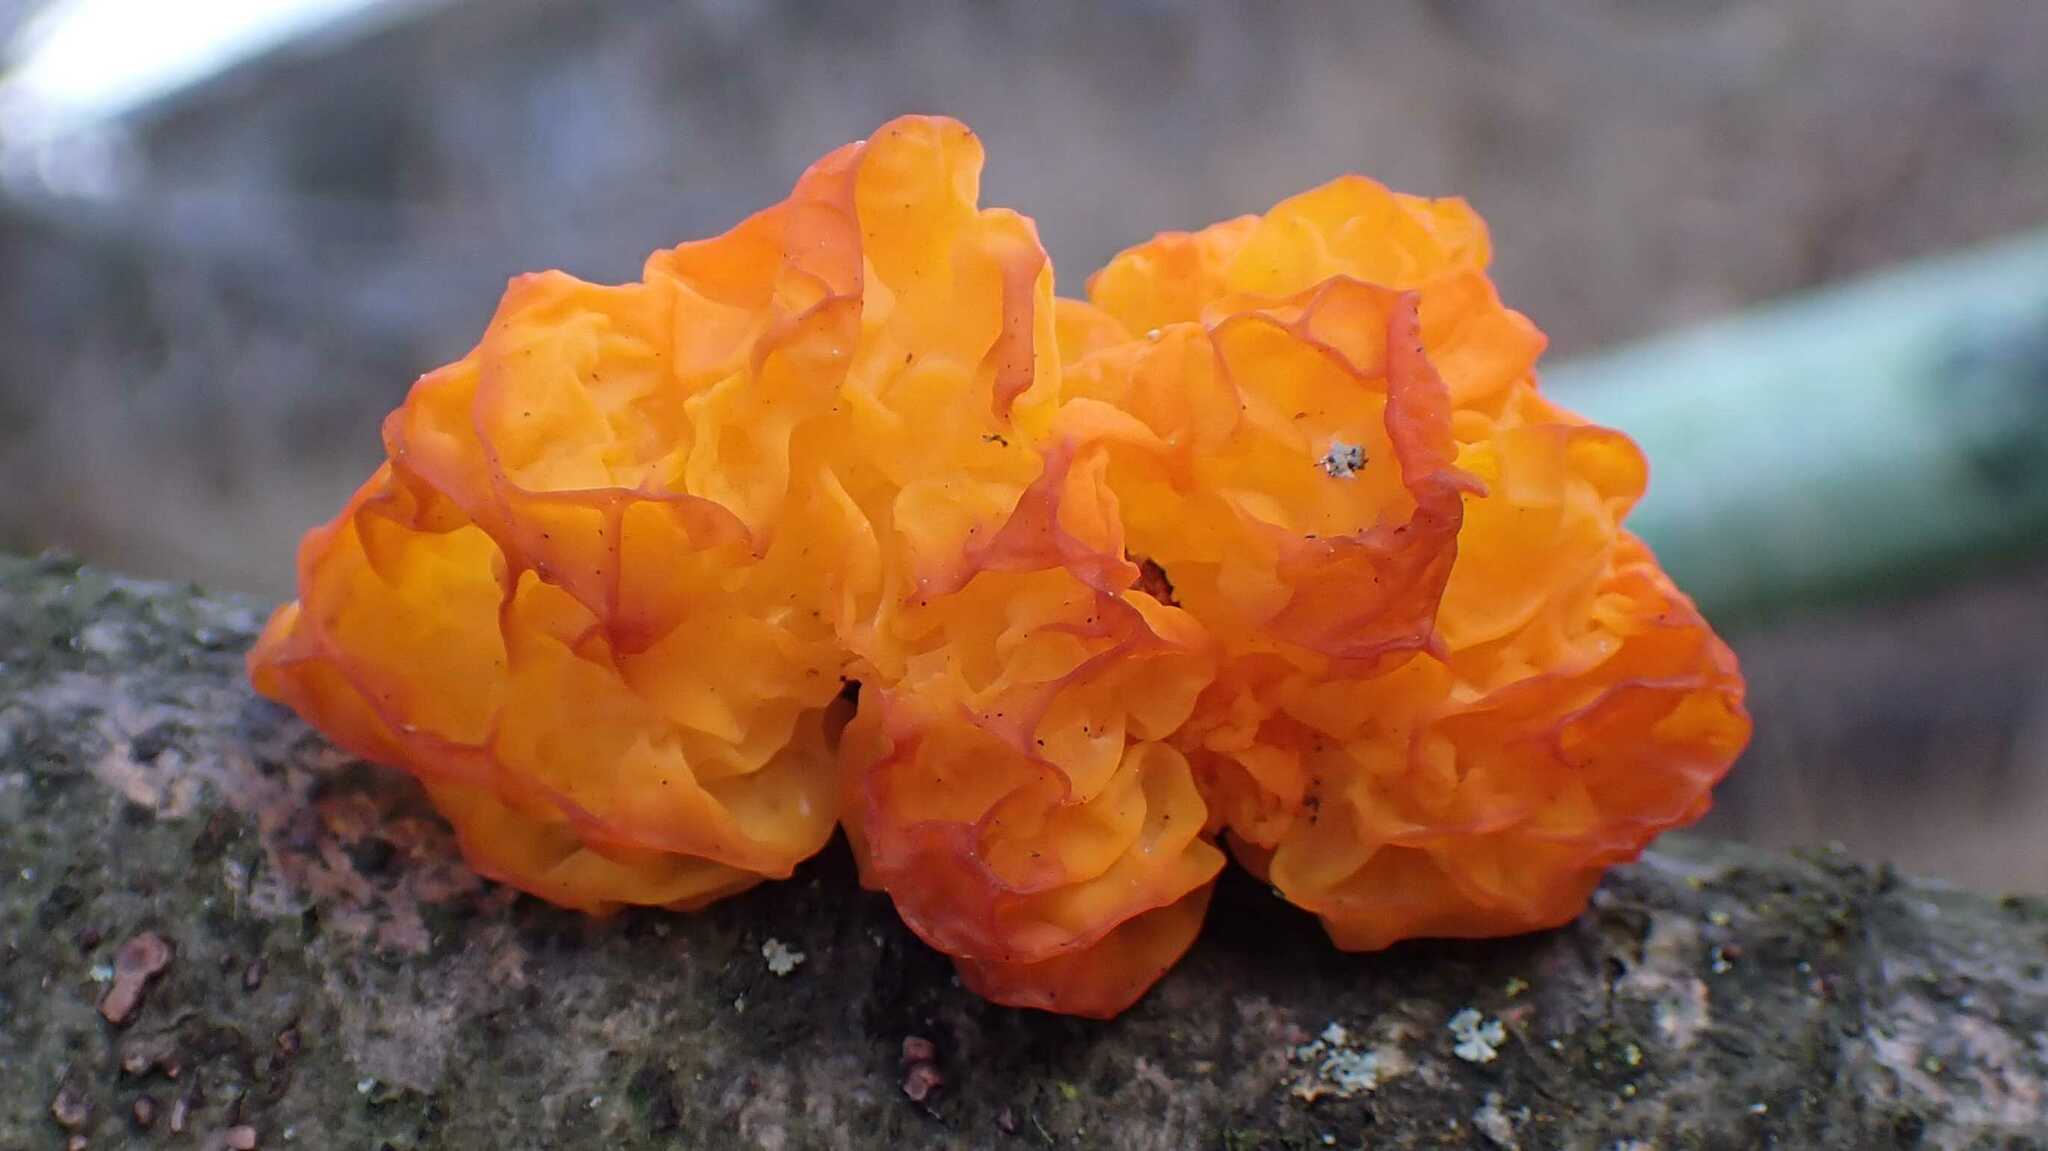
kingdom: Fungi
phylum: Basidiomycota
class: Tremellomycetes
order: Tremellales
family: Tremellaceae
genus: Tremella
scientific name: Tremella mesenterica
